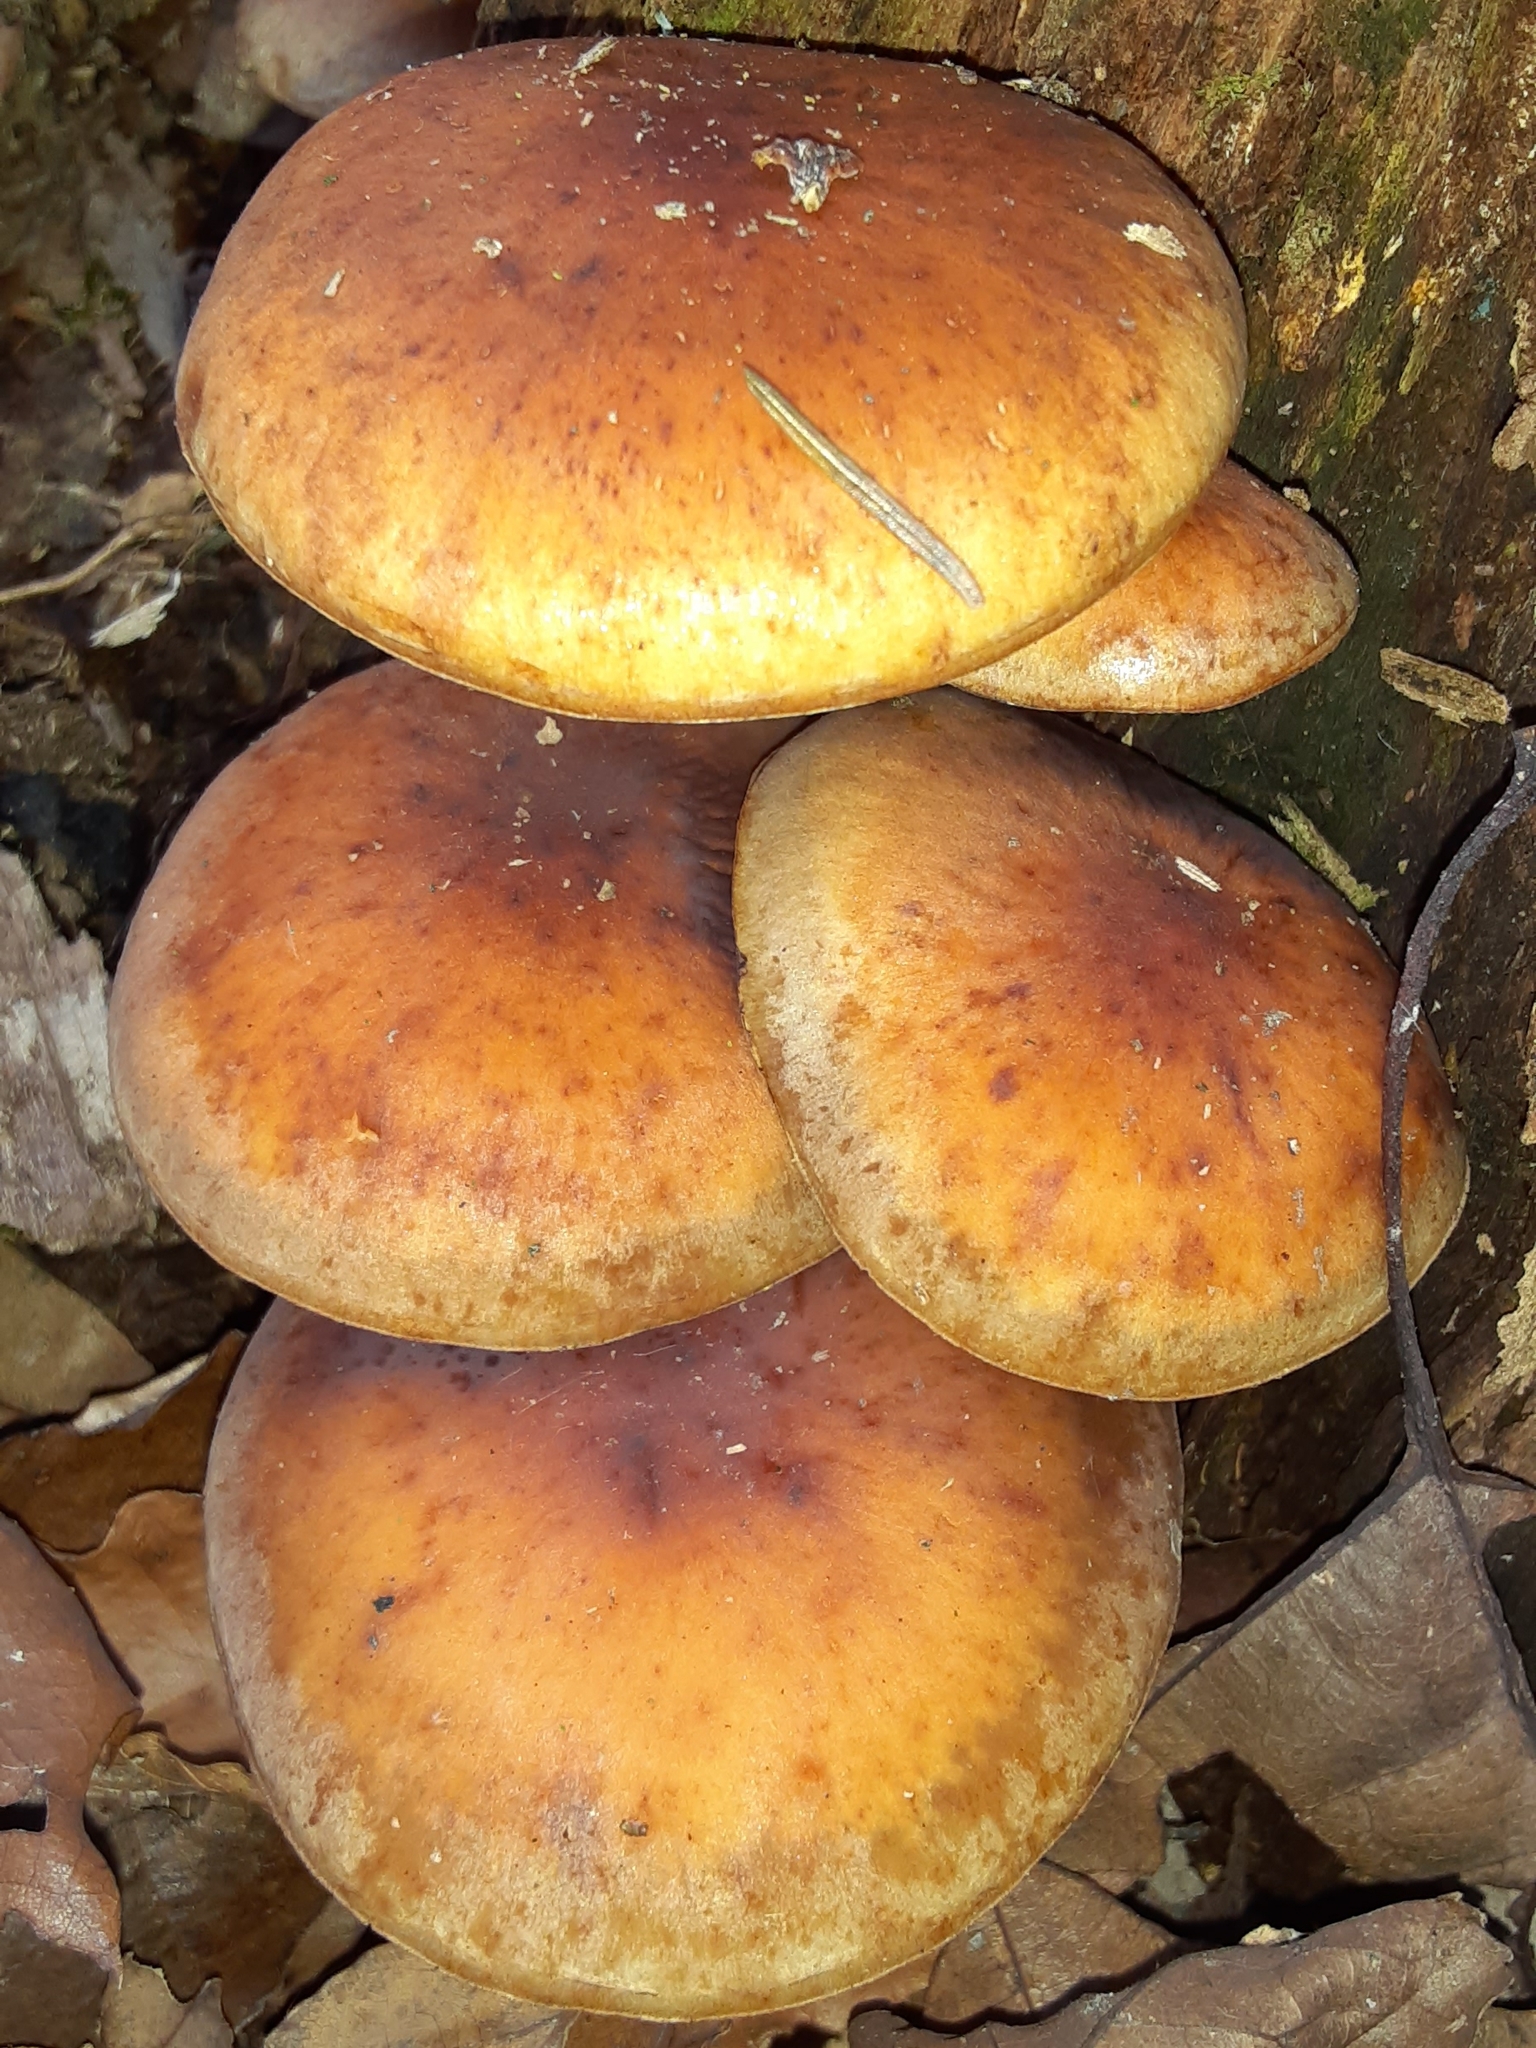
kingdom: Fungi
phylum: Basidiomycota
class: Agaricomycetes
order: Agaricales
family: Strophariaceae
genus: Hypholoma
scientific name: Hypholoma lateritium
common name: Brick caps
